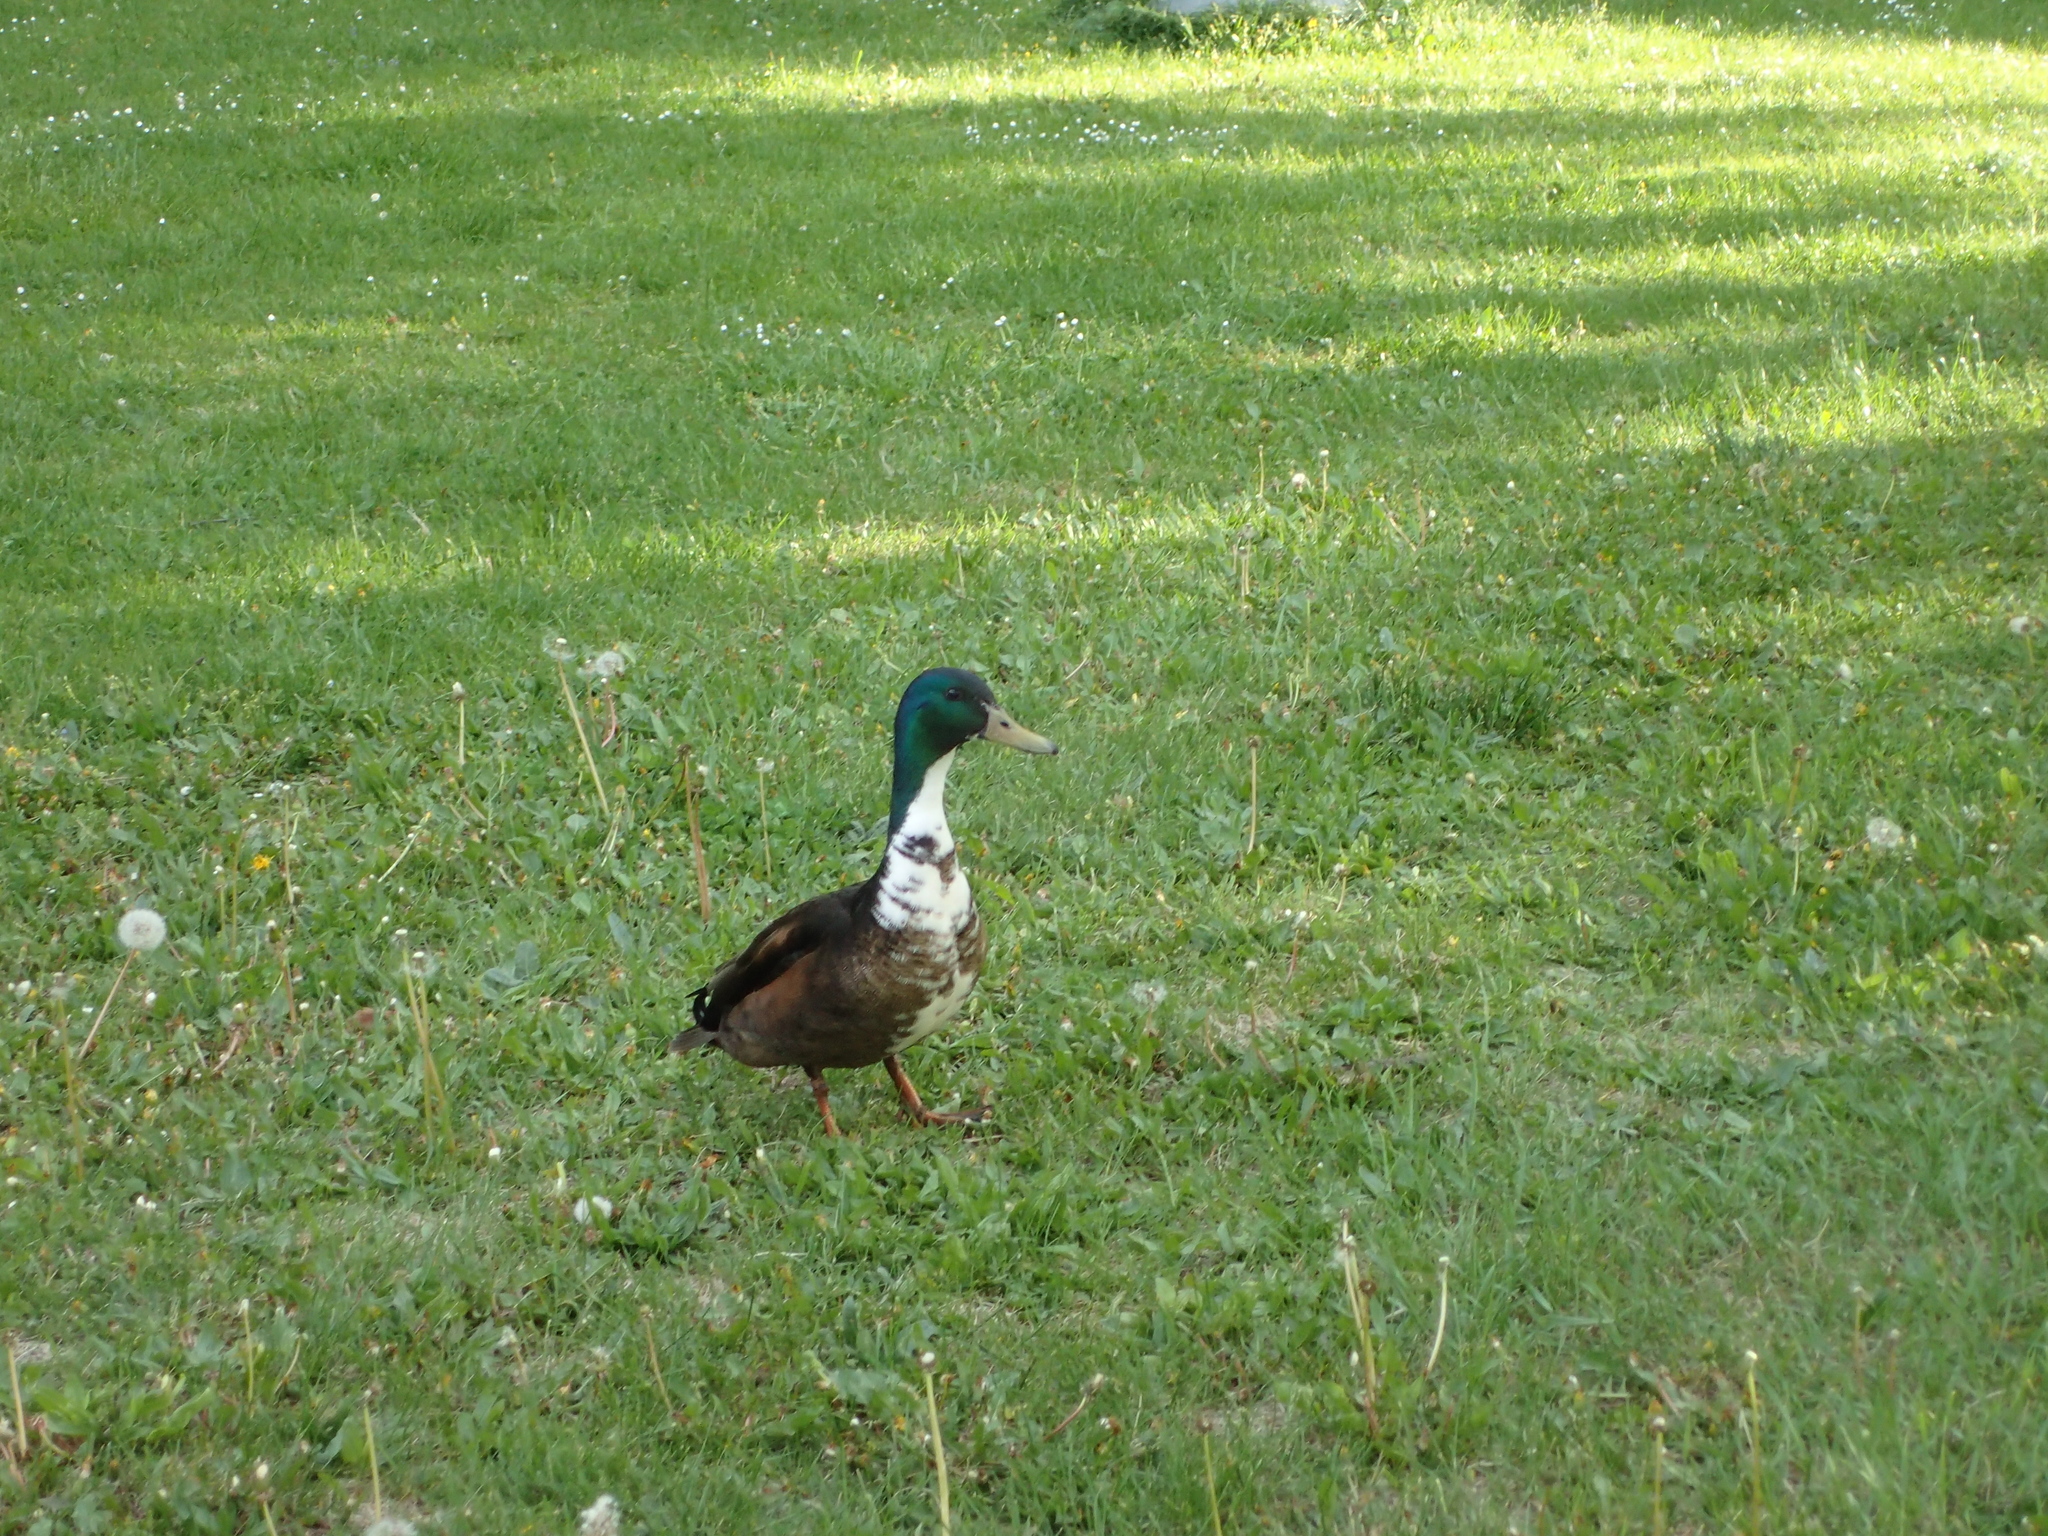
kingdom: Animalia
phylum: Chordata
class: Aves
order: Anseriformes
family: Anatidae
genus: Anas
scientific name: Anas platyrhynchos
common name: Mallard
